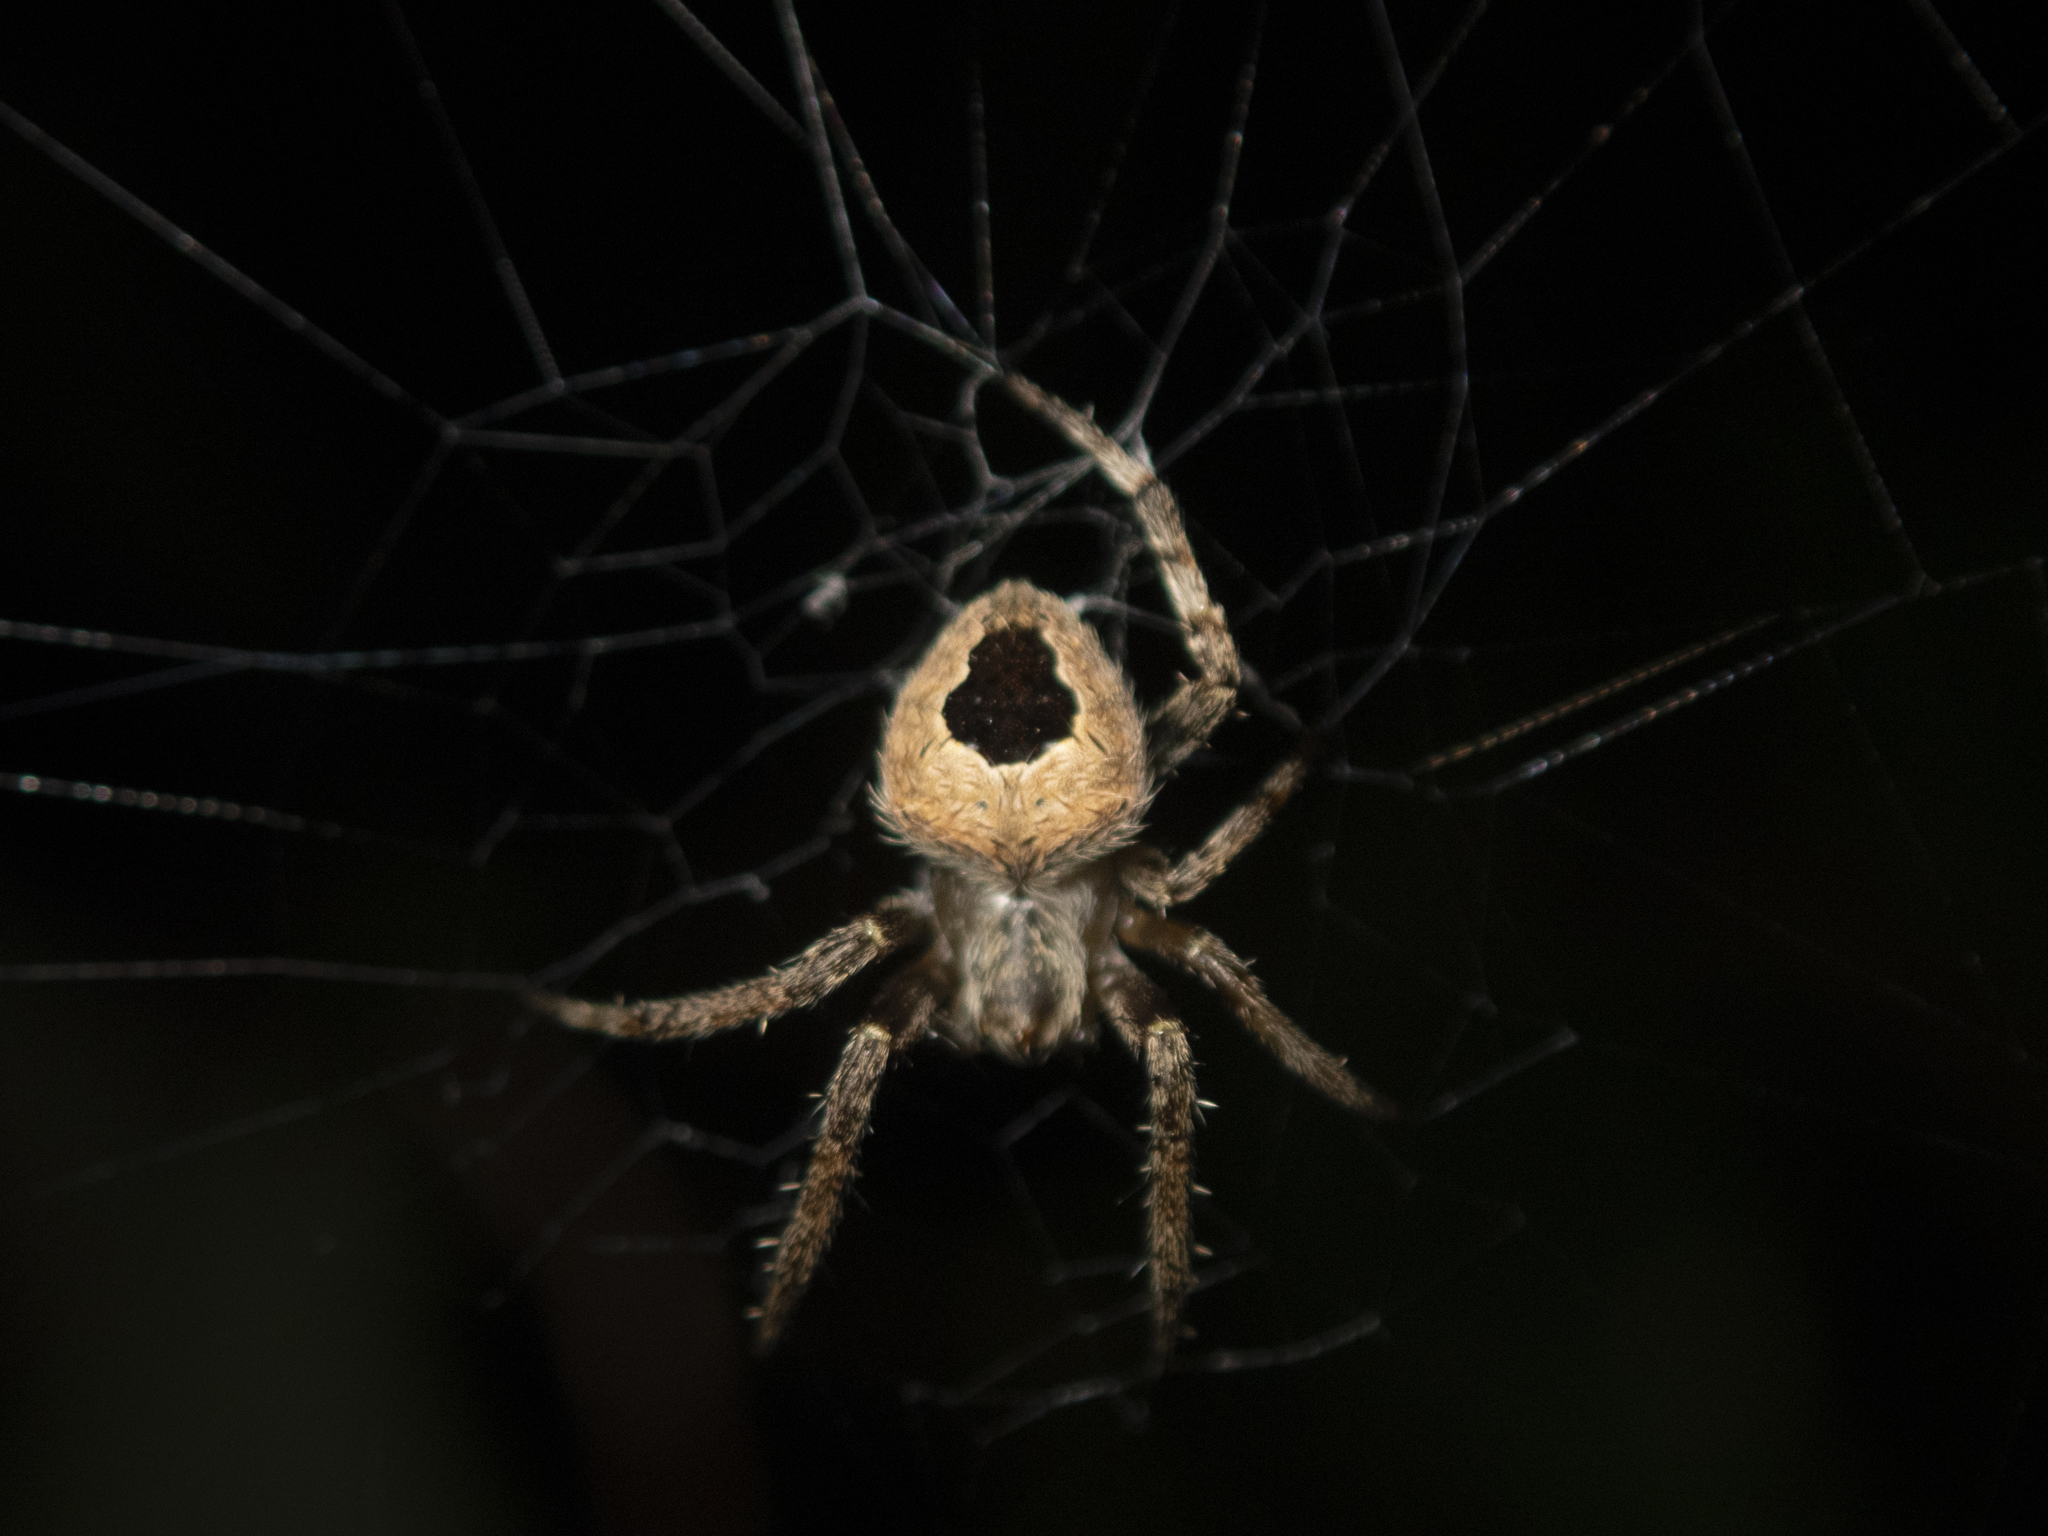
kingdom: Animalia
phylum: Arthropoda
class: Arachnida
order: Araneae
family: Araneidae
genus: Neoscona
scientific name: Neoscona vigilans
